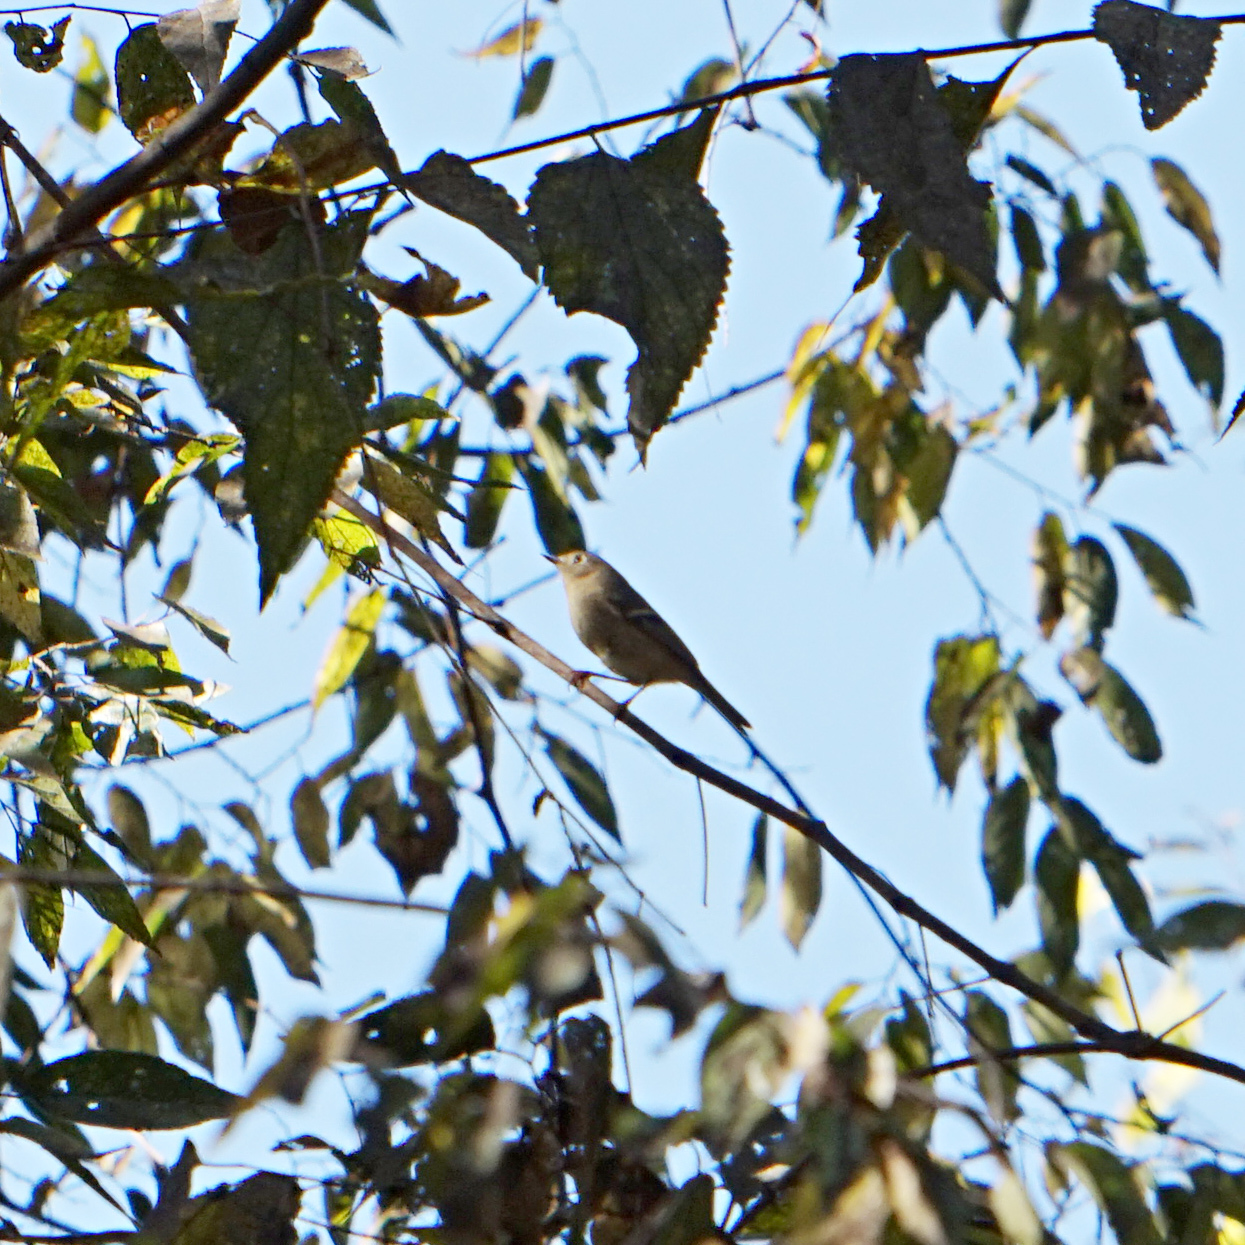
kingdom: Animalia
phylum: Chordata
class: Aves
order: Passeriformes
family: Regulidae
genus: Regulus
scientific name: Regulus calendula
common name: Ruby-crowned kinglet
